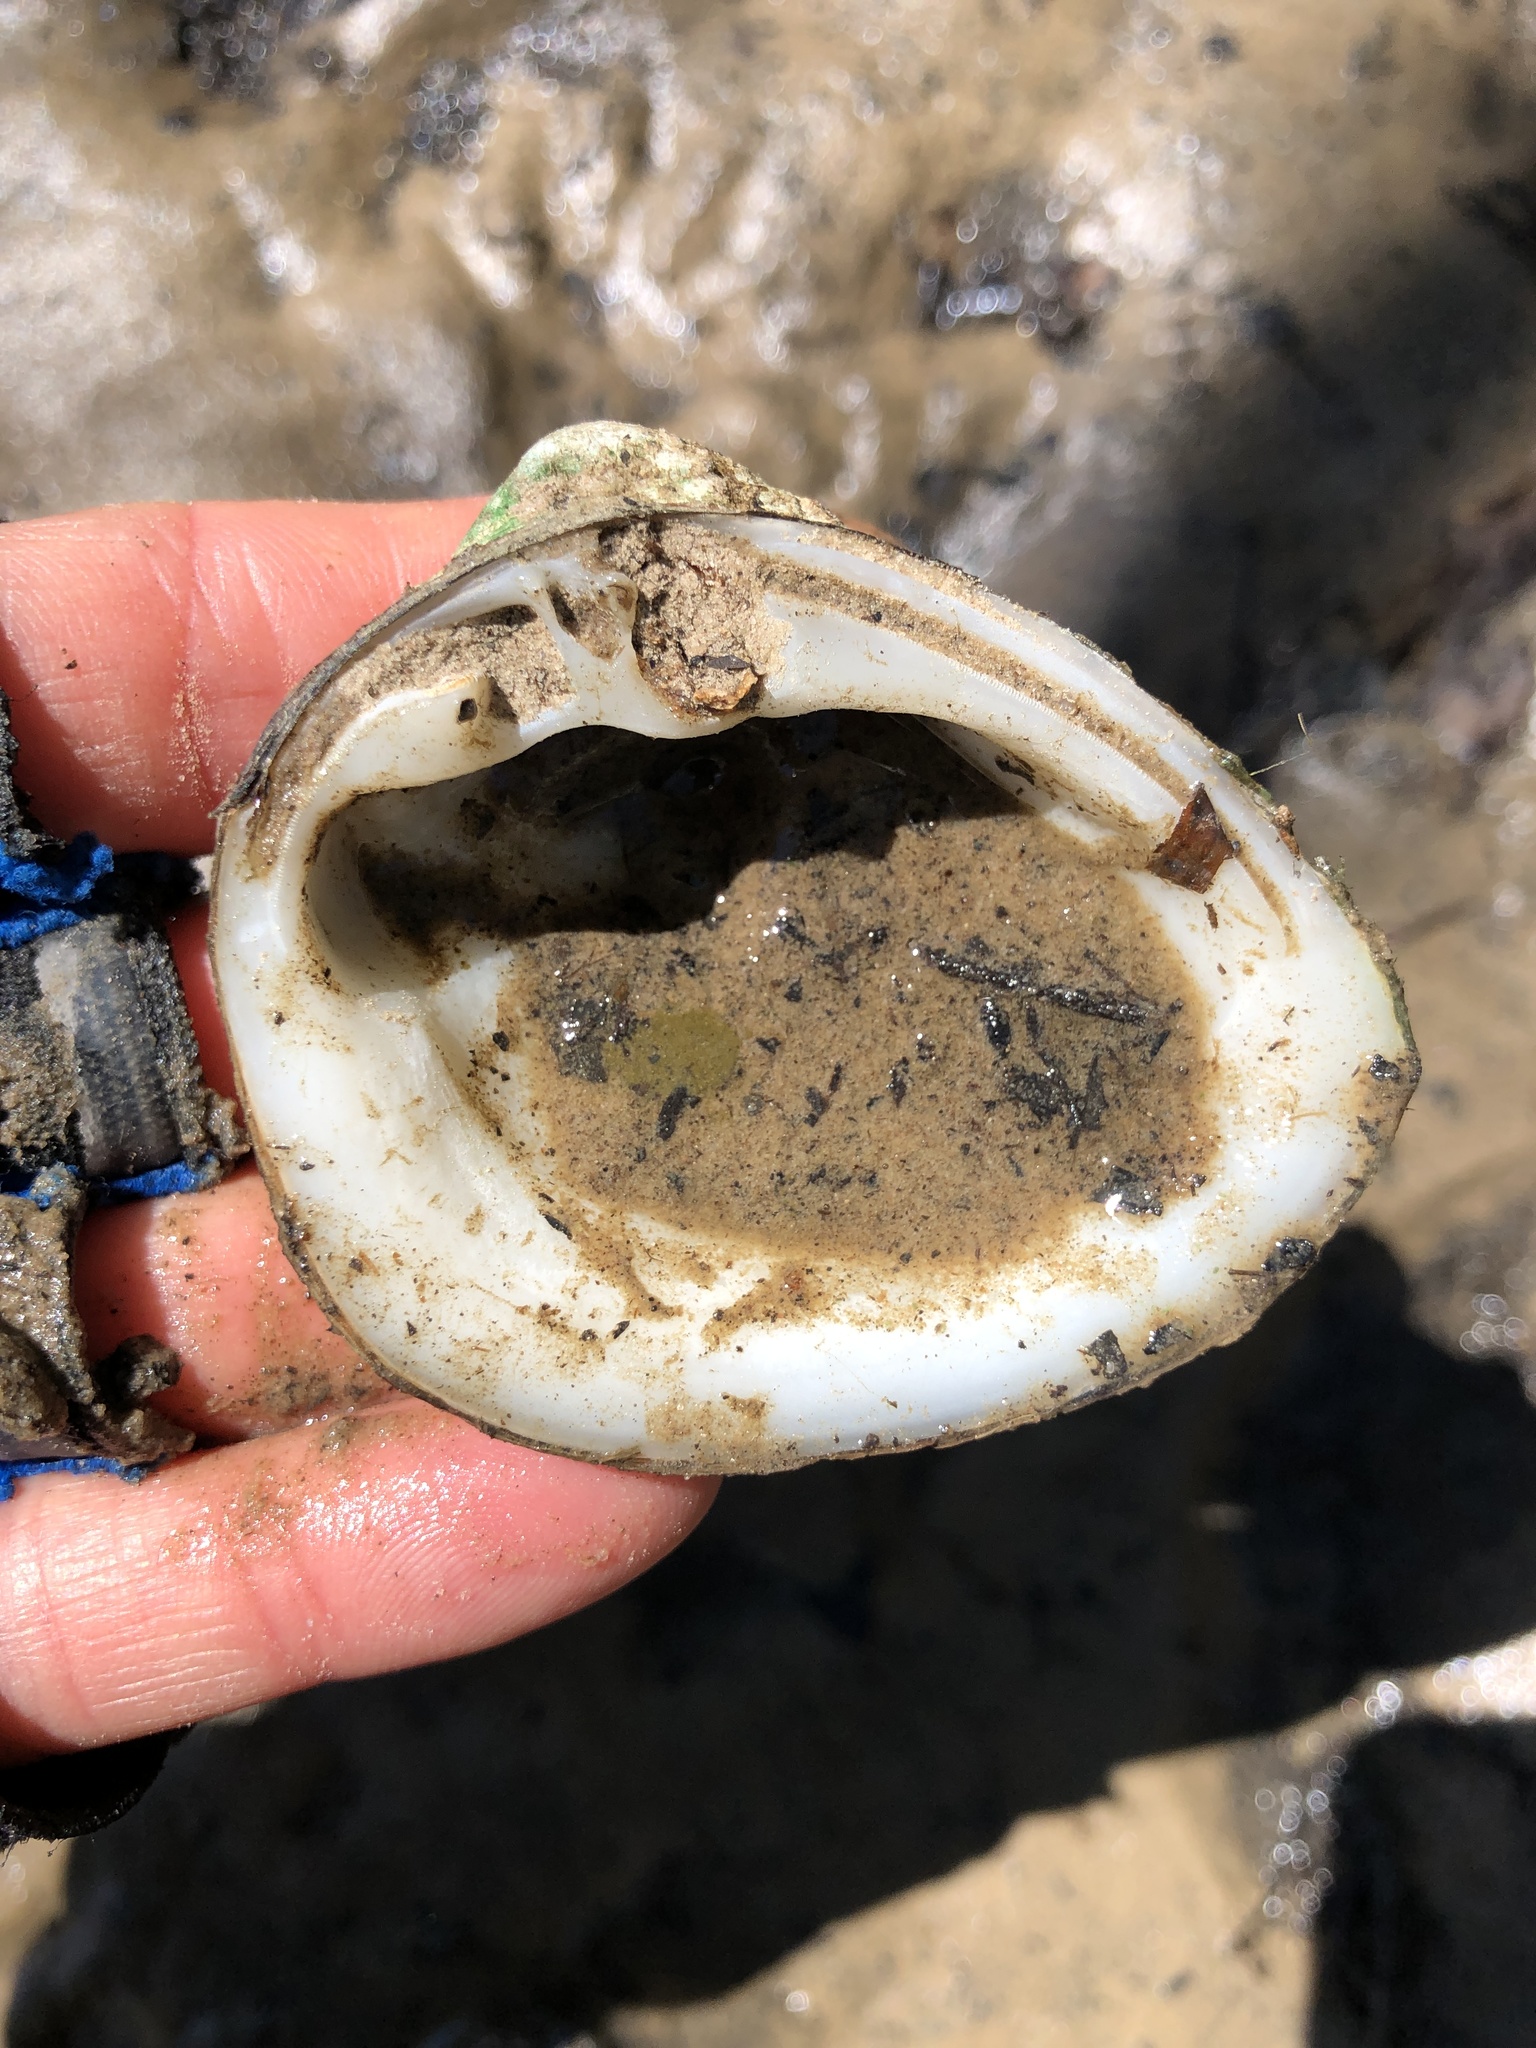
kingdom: Animalia
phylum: Mollusca
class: Bivalvia
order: Venerida
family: Mactridae
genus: Rangia
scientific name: Rangia cuneata
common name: Atlantic rangia
